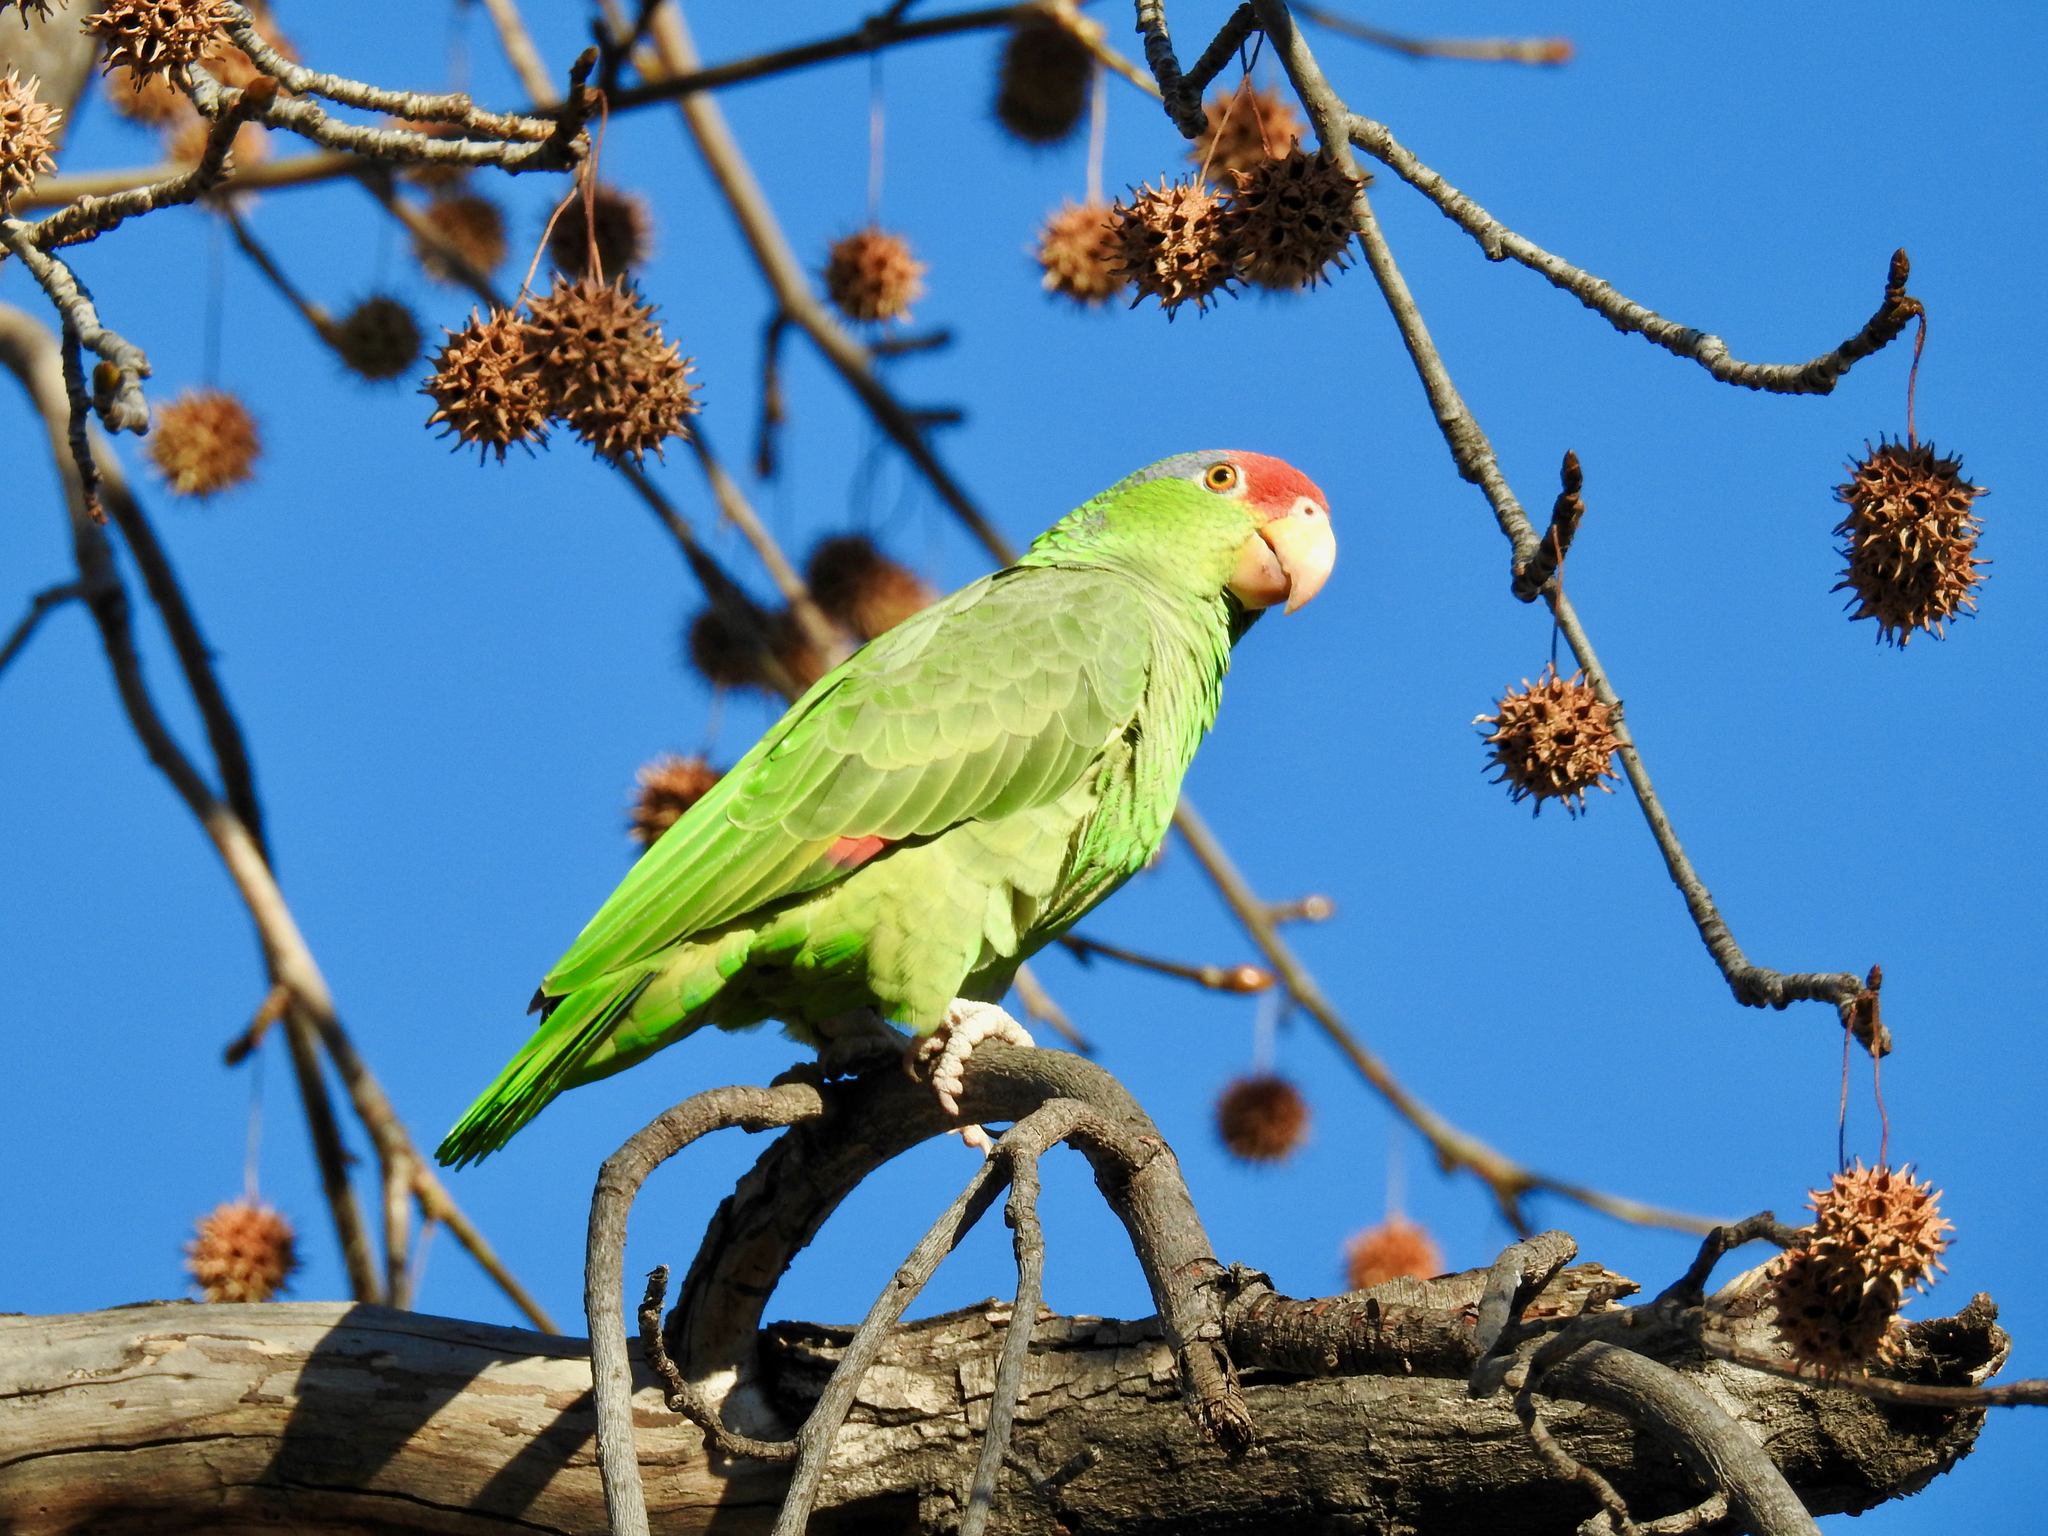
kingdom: Animalia
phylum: Chordata
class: Aves
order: Psittaciformes
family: Psittacidae
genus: Amazona
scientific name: Amazona viridigenalis
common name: Red-crowned amazon
